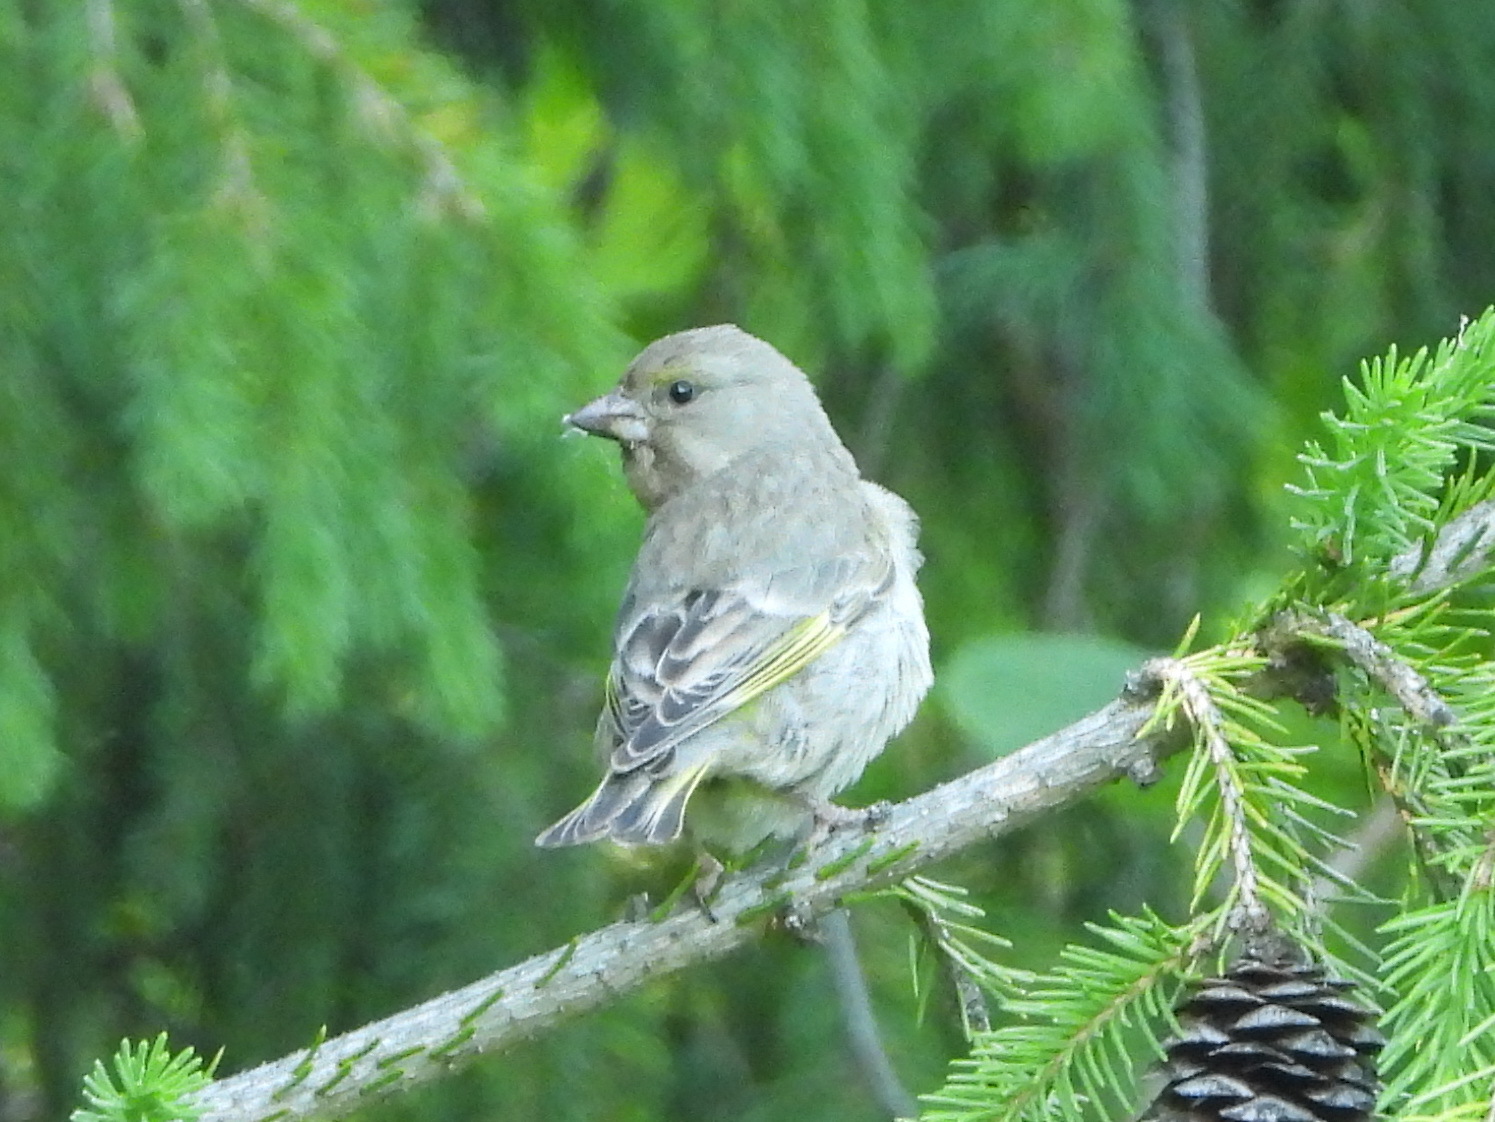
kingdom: Plantae
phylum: Tracheophyta
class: Liliopsida
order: Poales
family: Poaceae
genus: Chloris
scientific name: Chloris chloris
